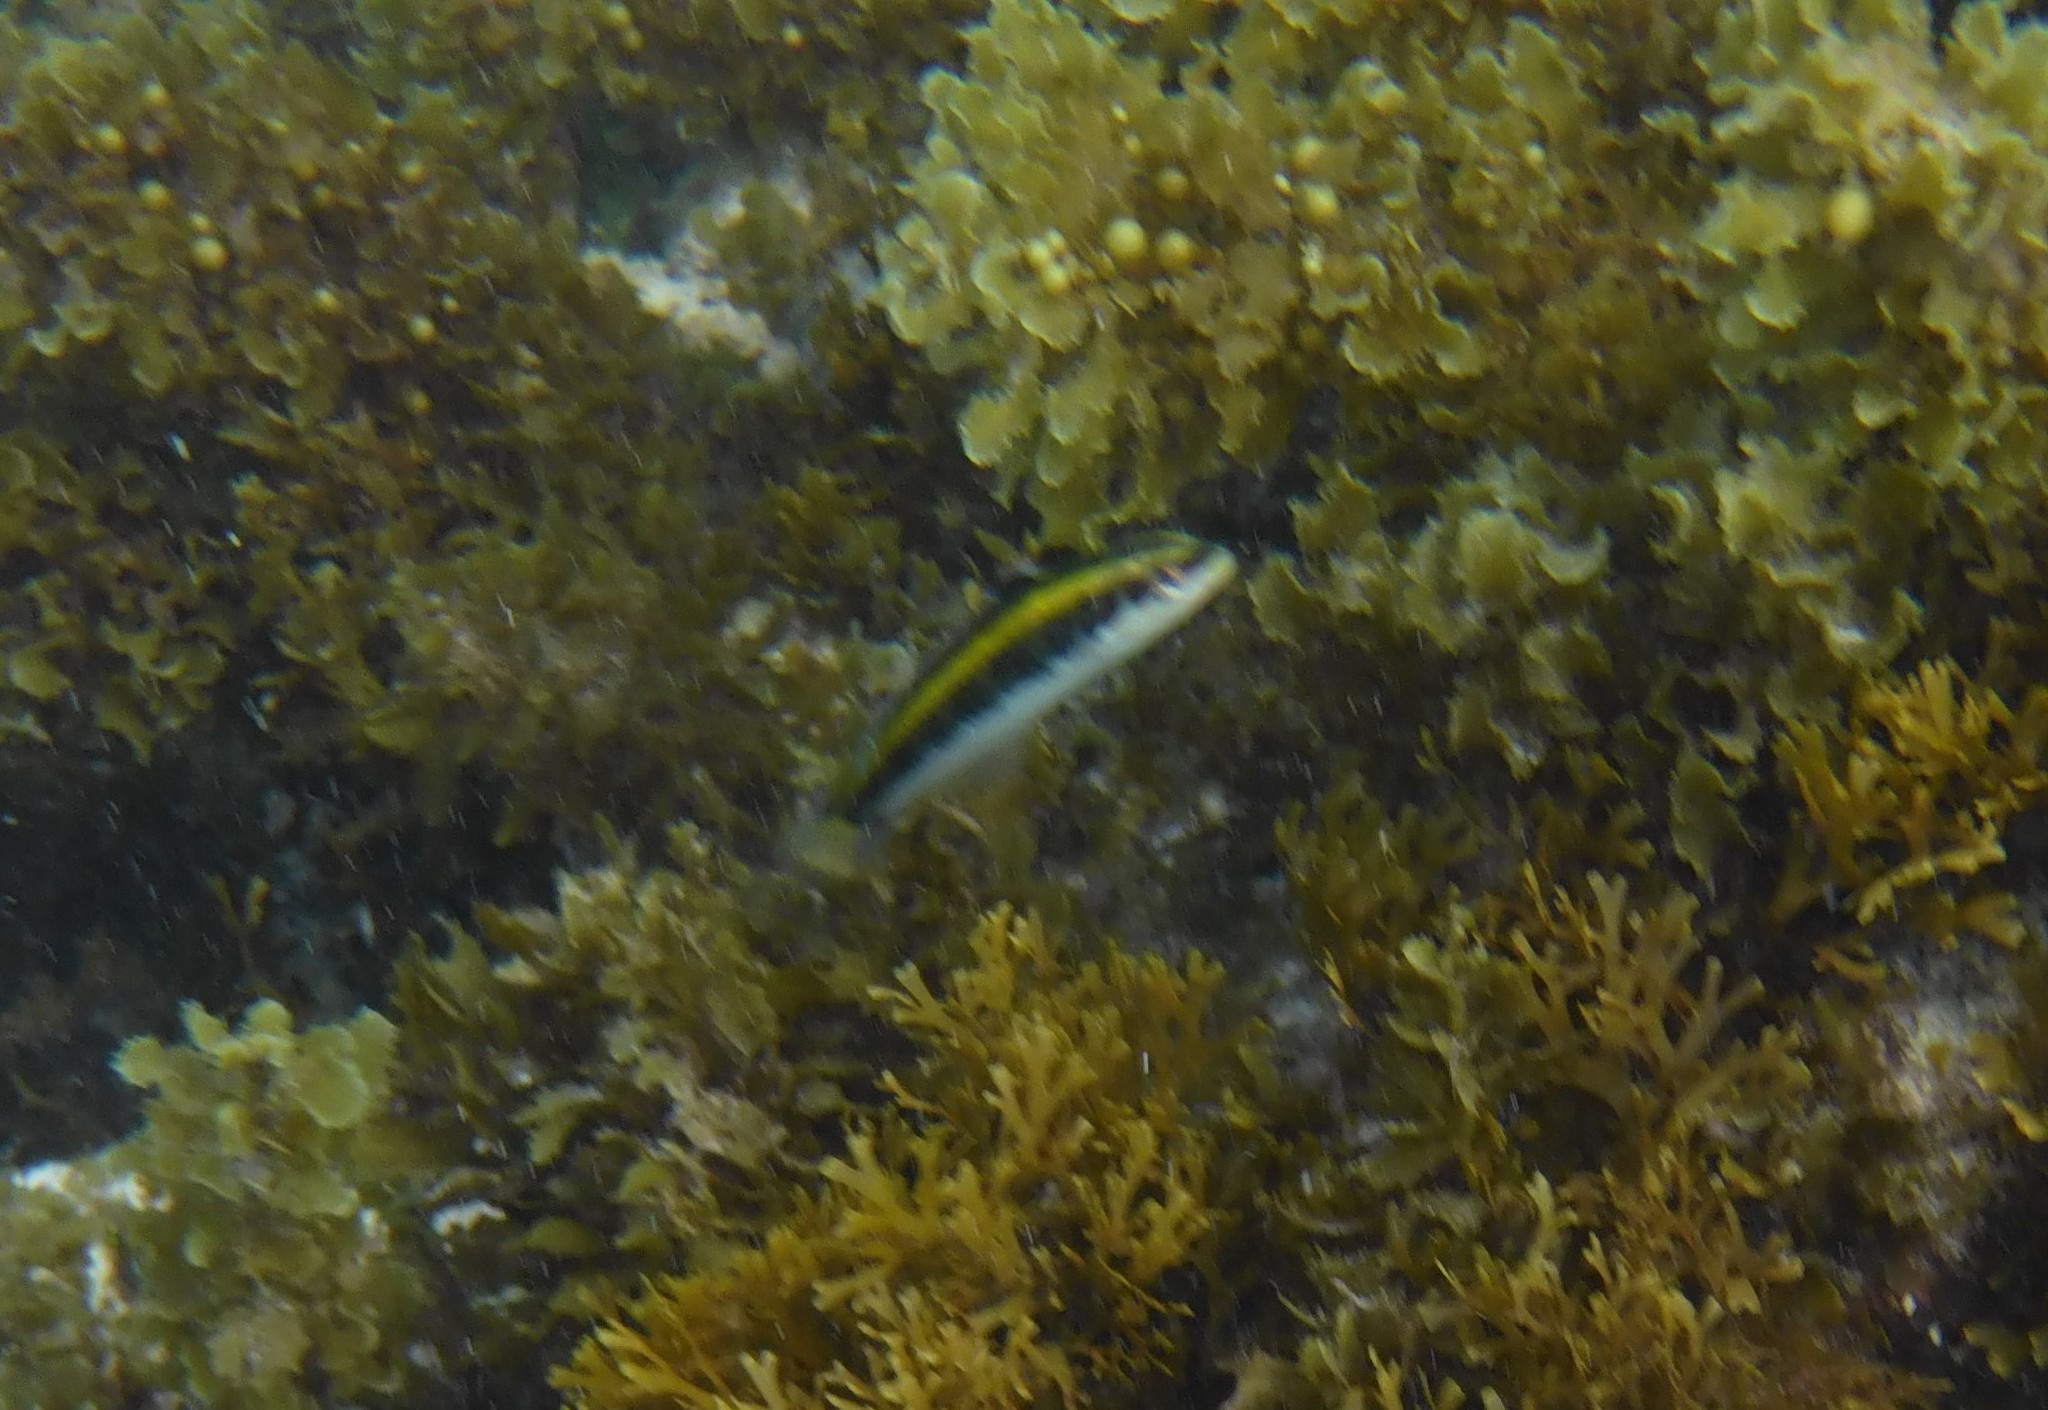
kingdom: Animalia
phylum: Chordata
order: Perciformes
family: Labridae
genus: Thalassoma
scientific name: Thalassoma bifasciatum
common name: Bluehead wrasse
